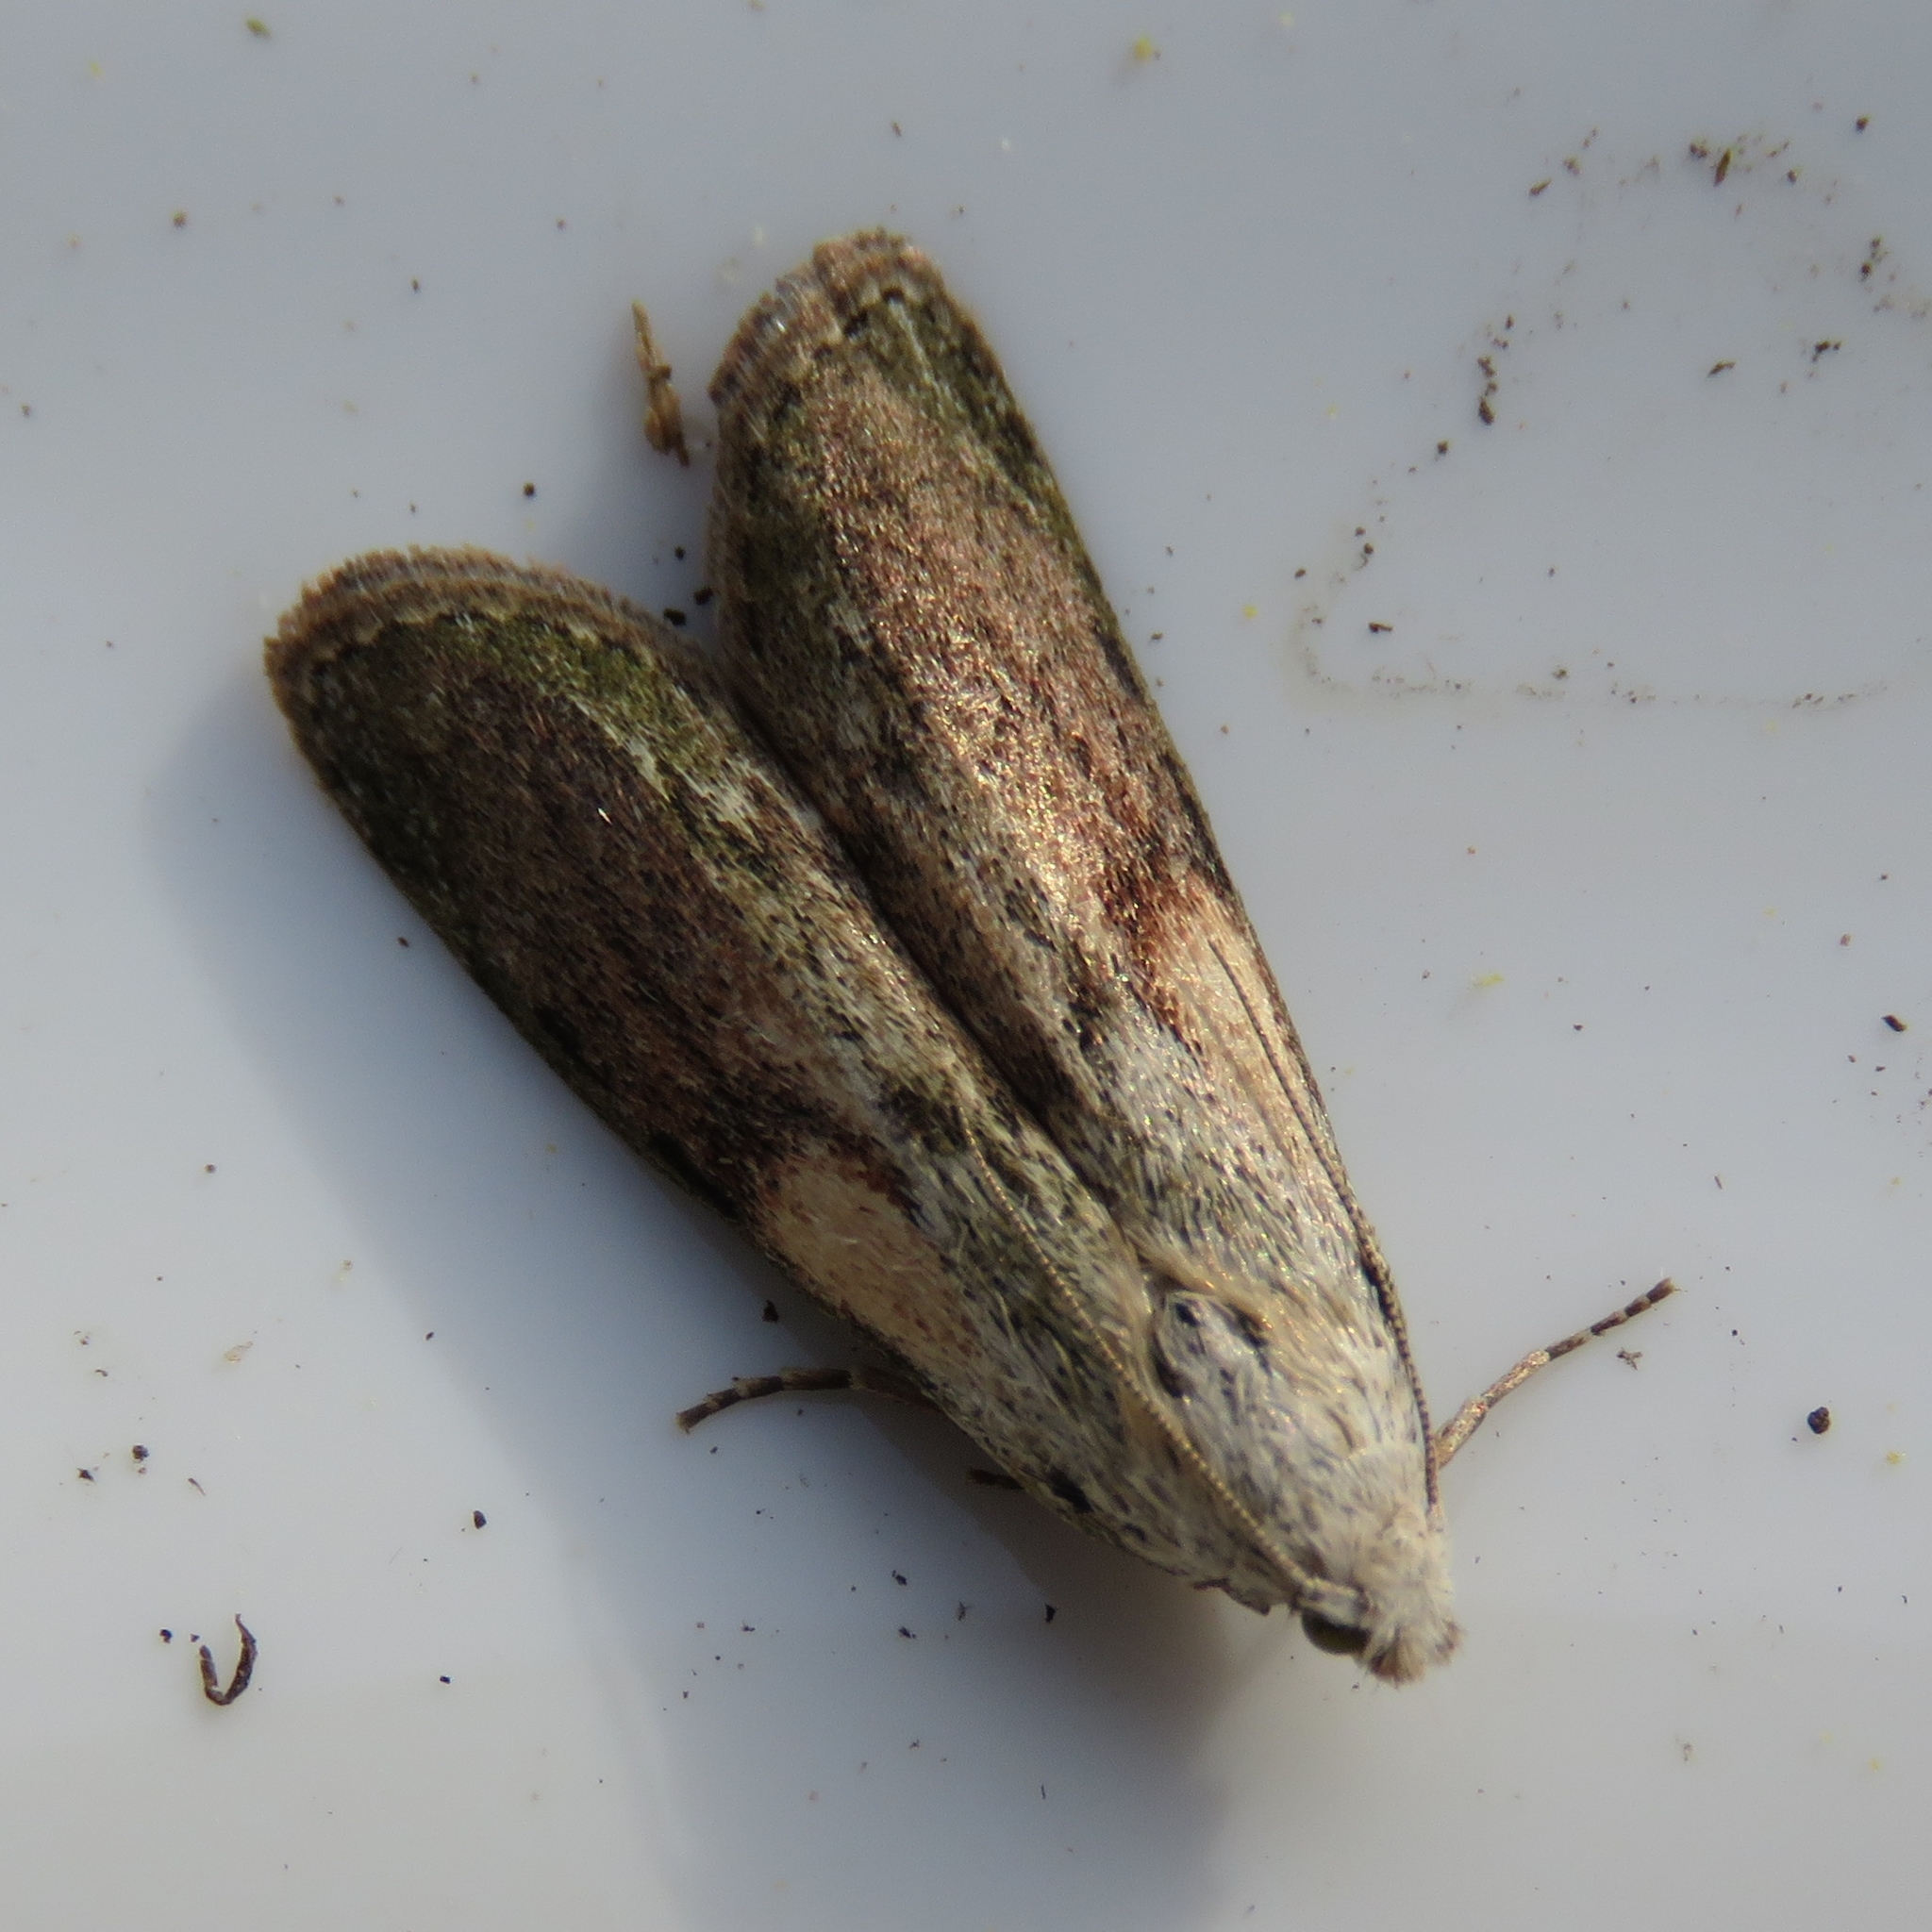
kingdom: Animalia
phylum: Arthropoda
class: Insecta
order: Lepidoptera
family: Pyralidae
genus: Aphomia
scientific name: Aphomia sociella
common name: Bee moth
